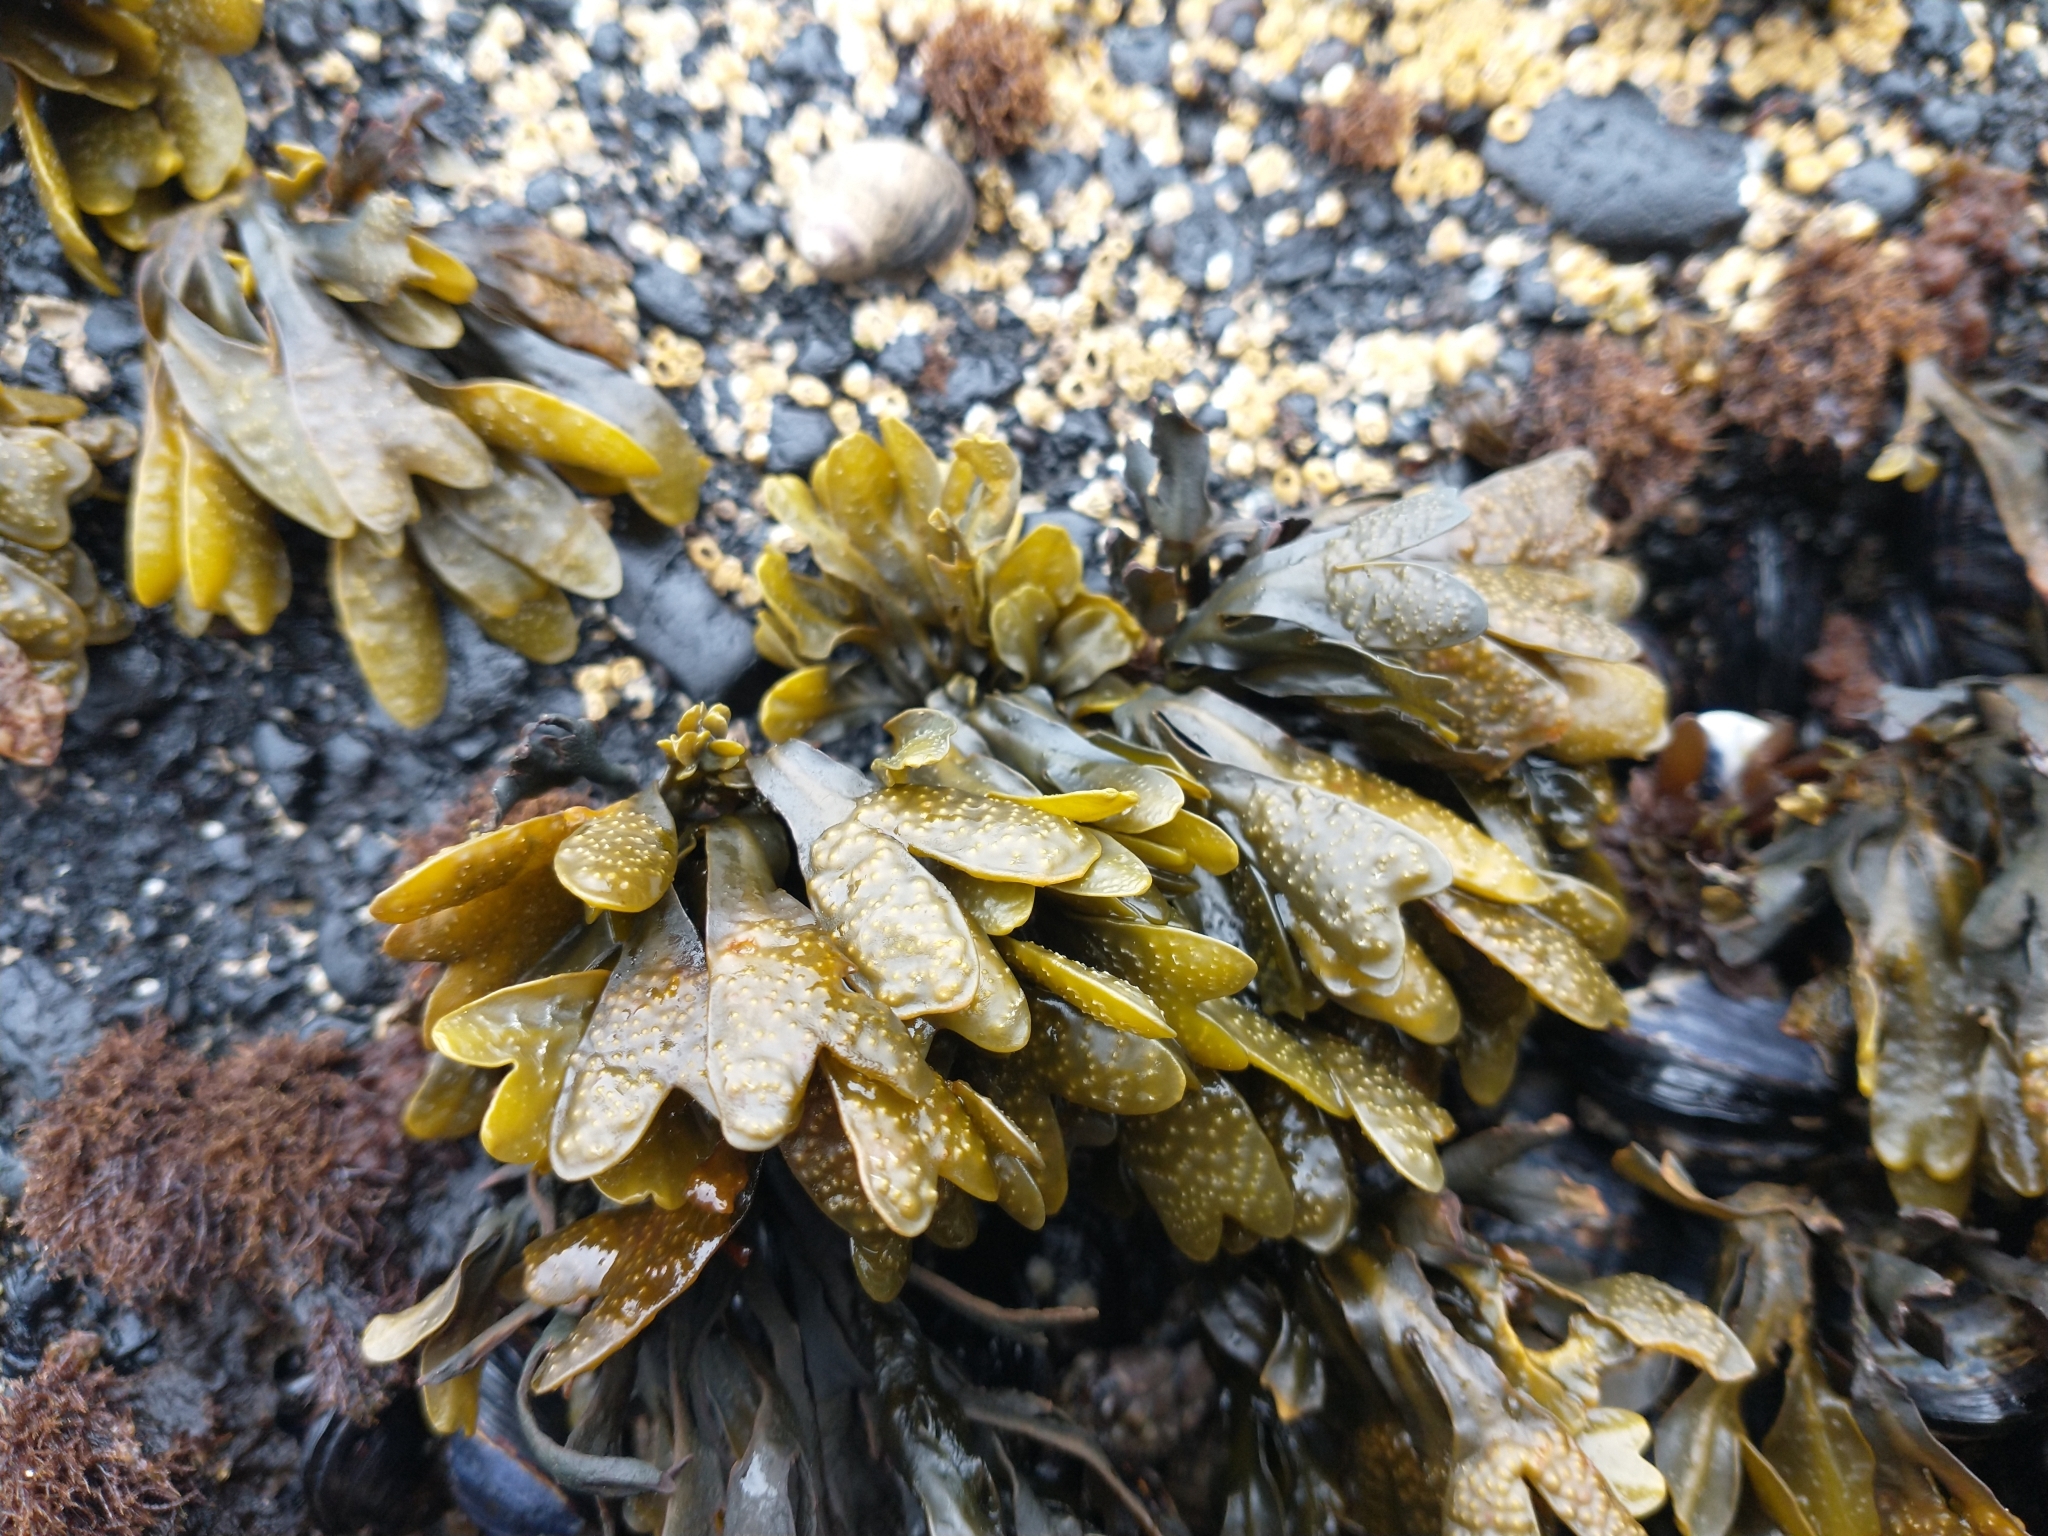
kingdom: Chromista
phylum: Ochrophyta
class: Phaeophyceae
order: Fucales
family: Fucaceae
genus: Fucus
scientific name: Fucus distichus
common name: Rockweed
